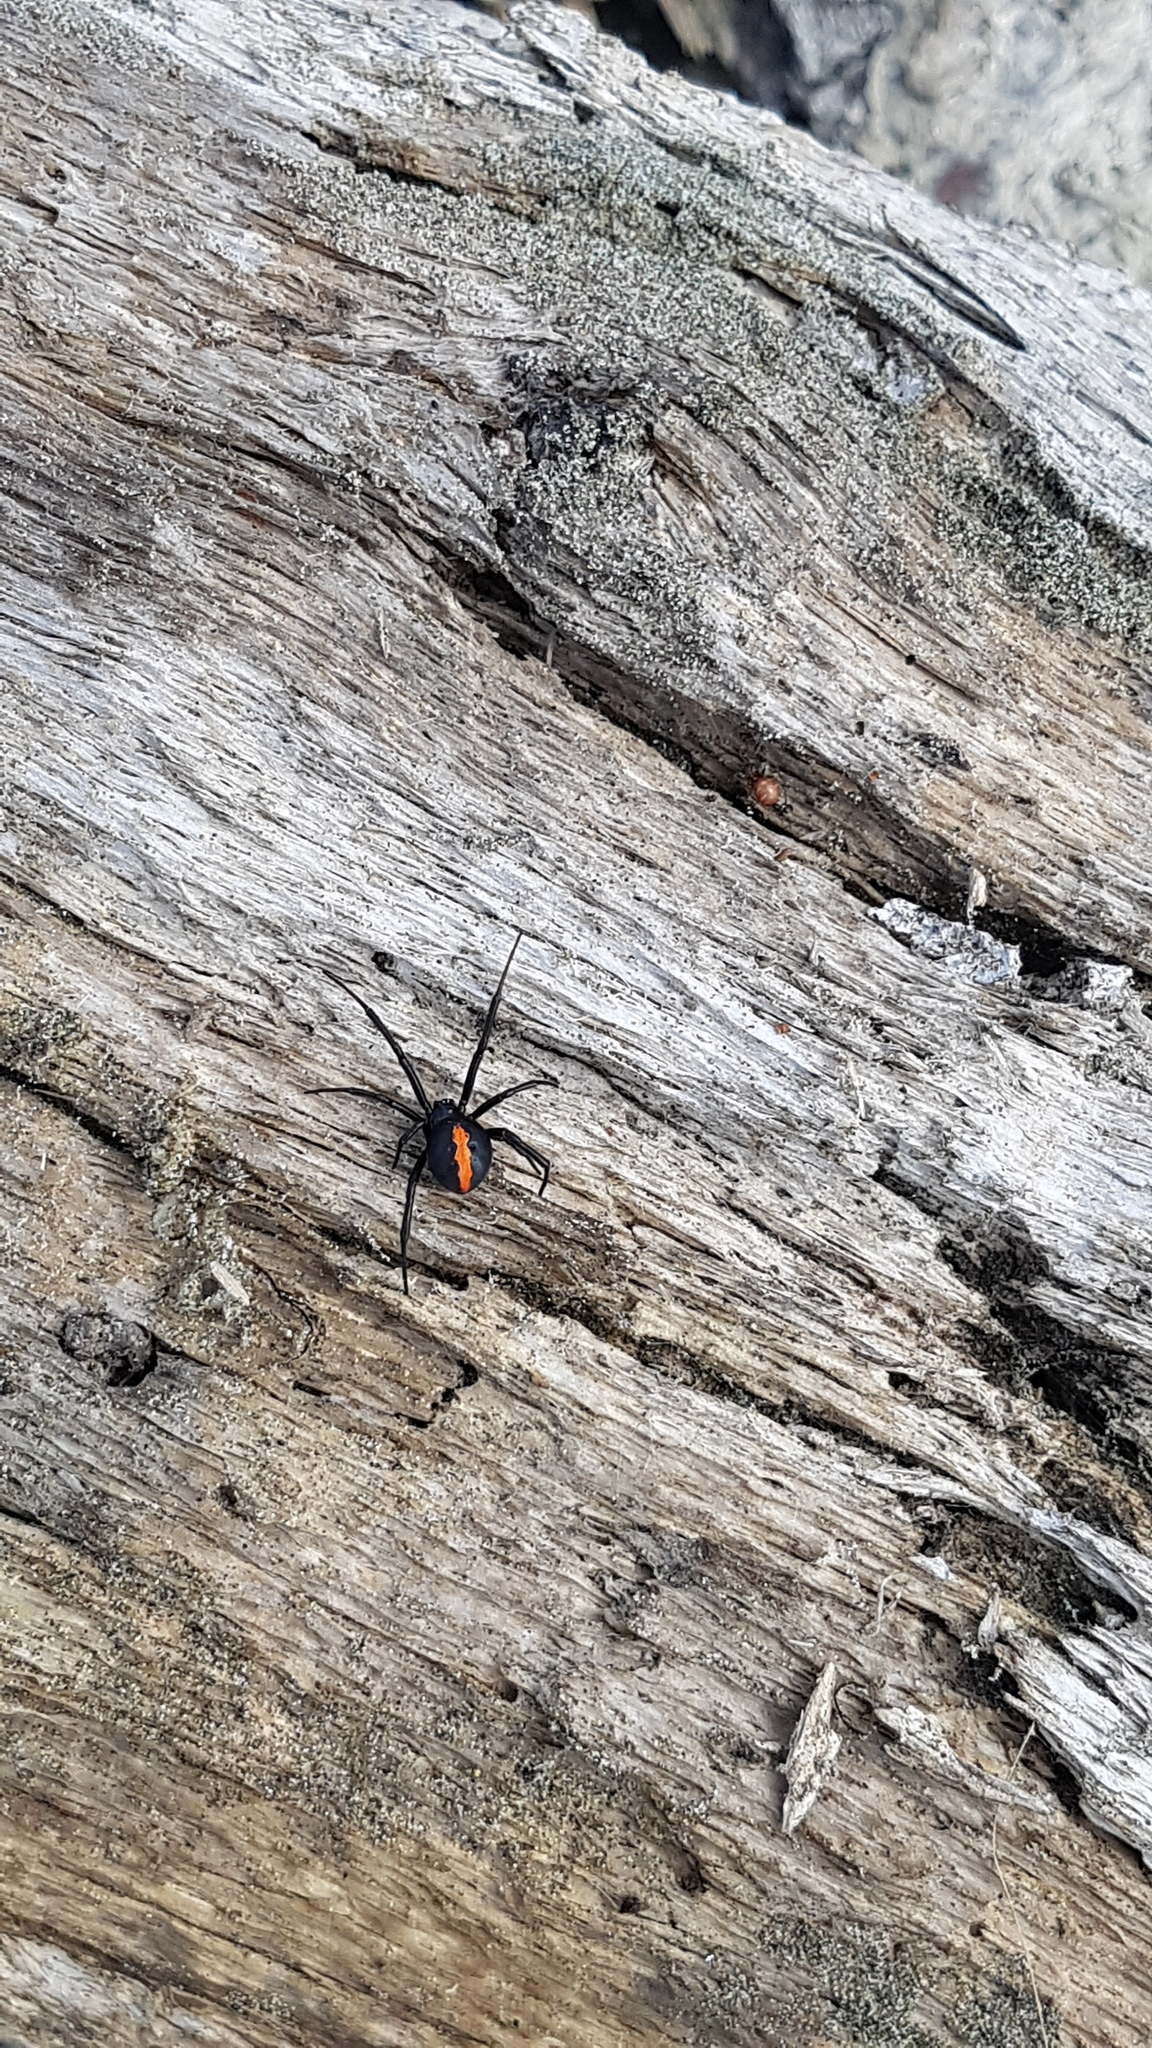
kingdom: Animalia
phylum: Arthropoda
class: Arachnida
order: Araneae
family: Theridiidae
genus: Latrodectus
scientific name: Latrodectus katipo
